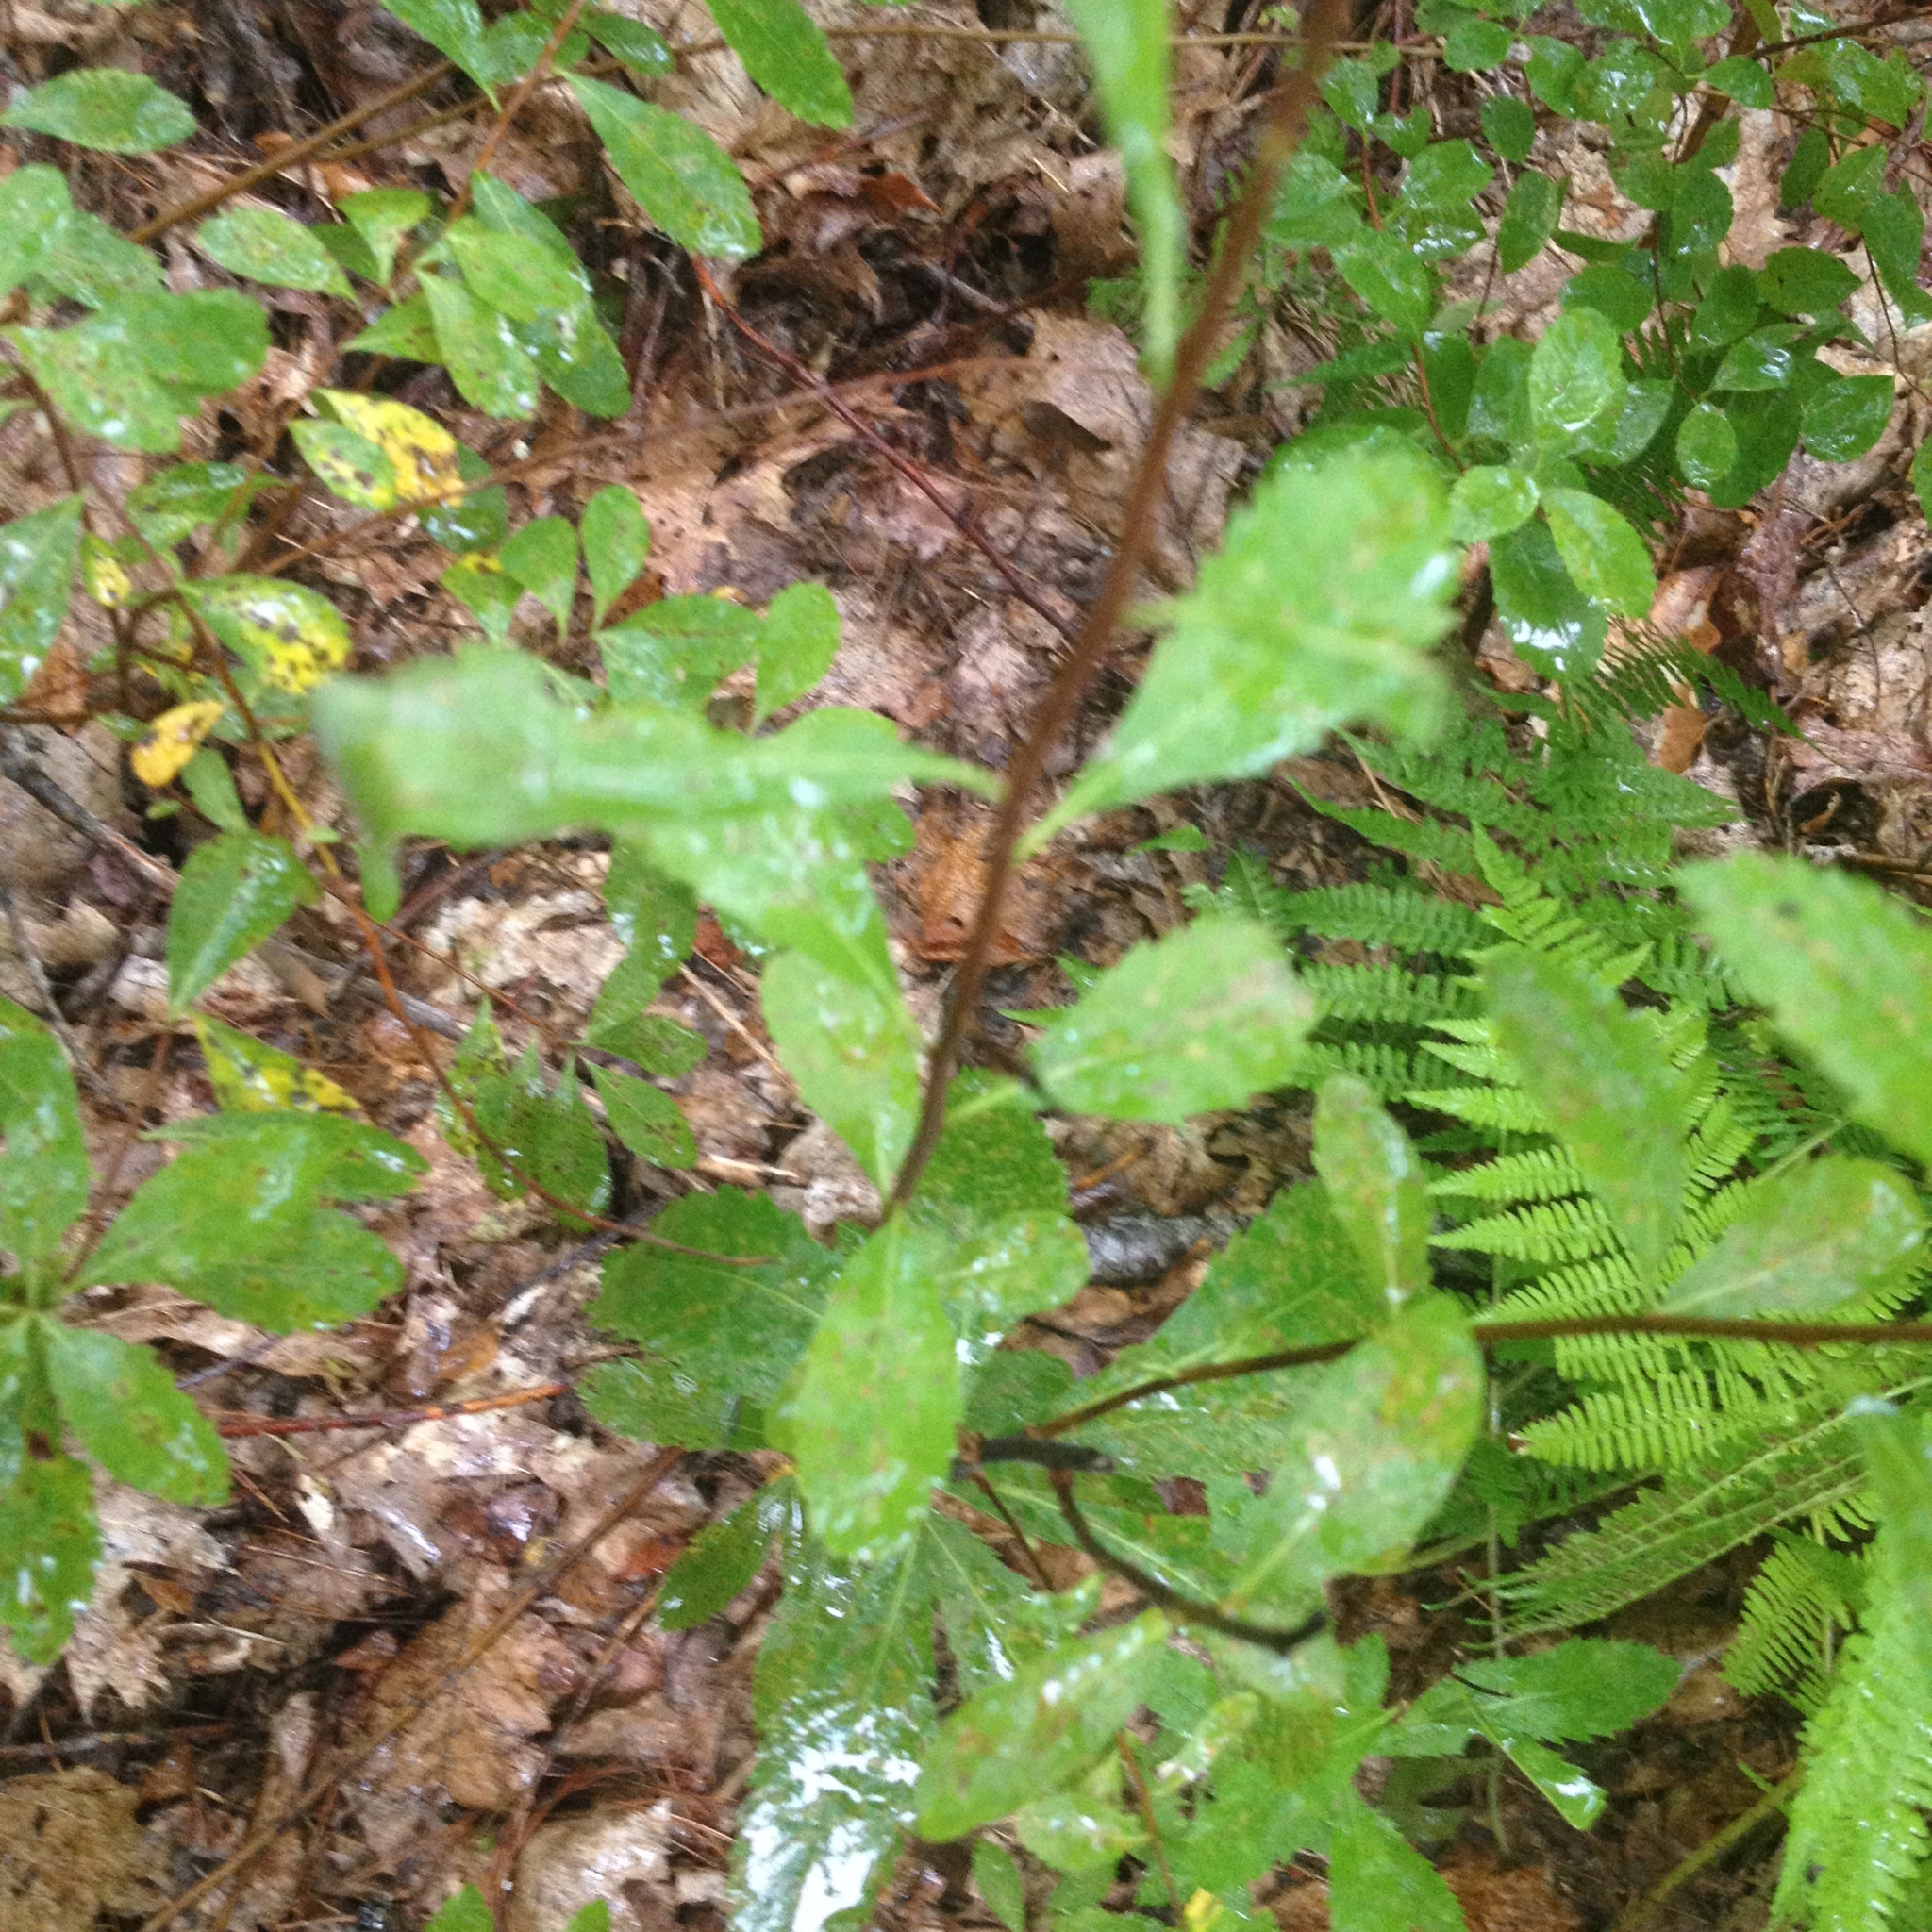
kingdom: Plantae
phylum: Tracheophyta
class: Magnoliopsida
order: Rosales
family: Rosaceae
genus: Spiraea
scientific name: Spiraea alba
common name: Pale bridewort
